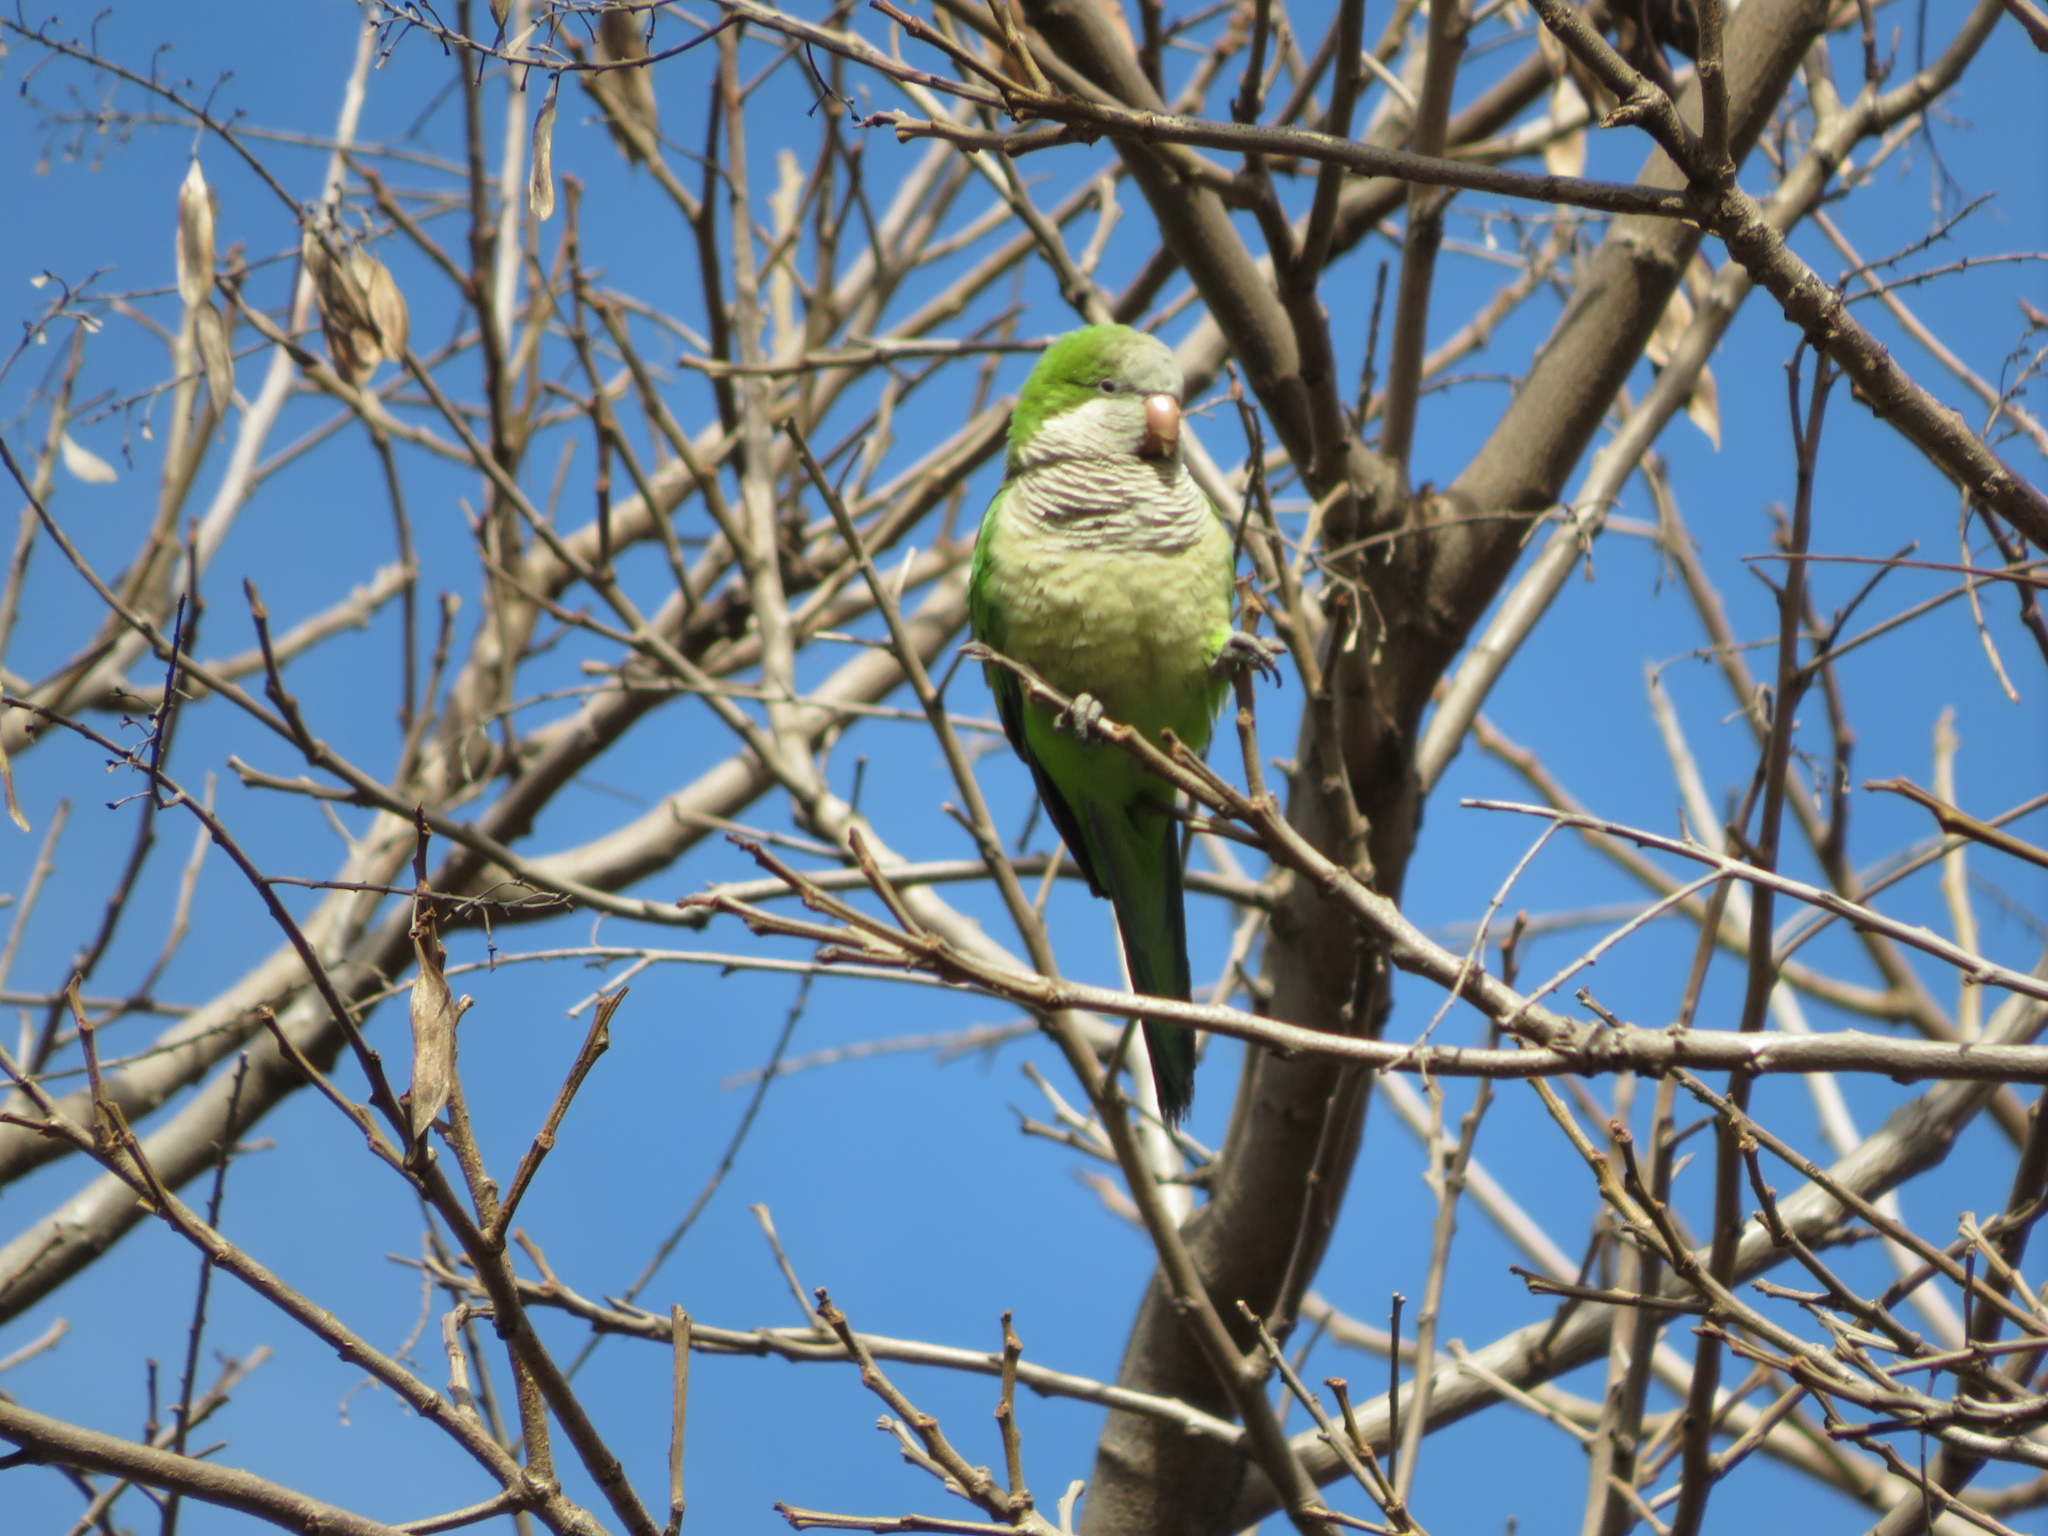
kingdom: Animalia
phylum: Chordata
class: Aves
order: Psittaciformes
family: Psittacidae
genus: Myiopsitta
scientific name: Myiopsitta monachus
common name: Monk parakeet
